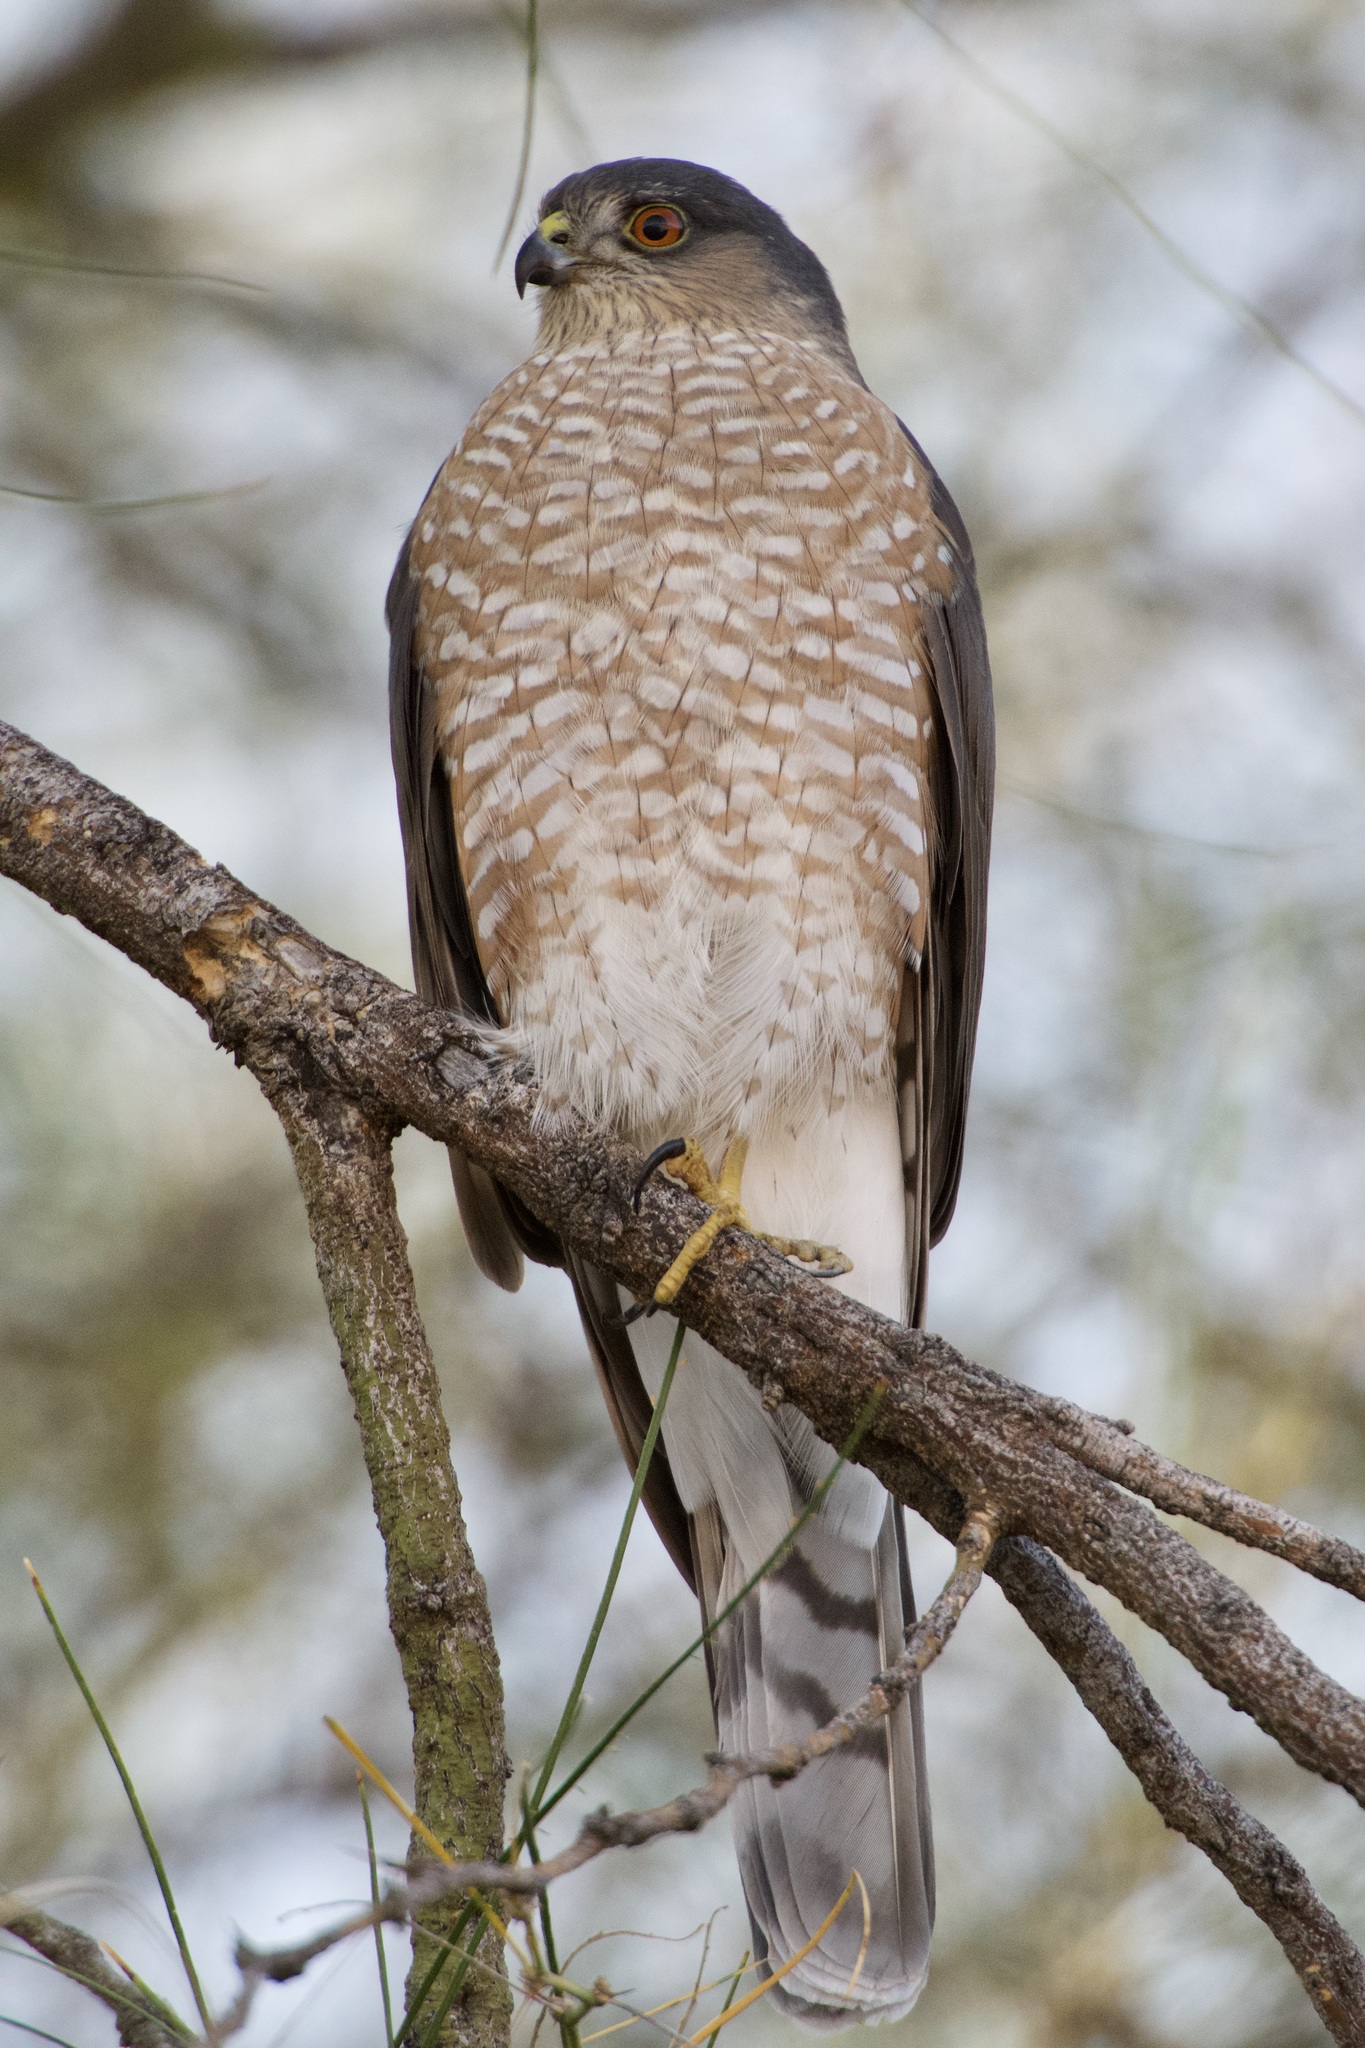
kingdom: Animalia
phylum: Chordata
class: Aves
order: Accipitriformes
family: Accipitridae
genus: Accipiter
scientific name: Accipiter striatus
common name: Sharp-shinned hawk
